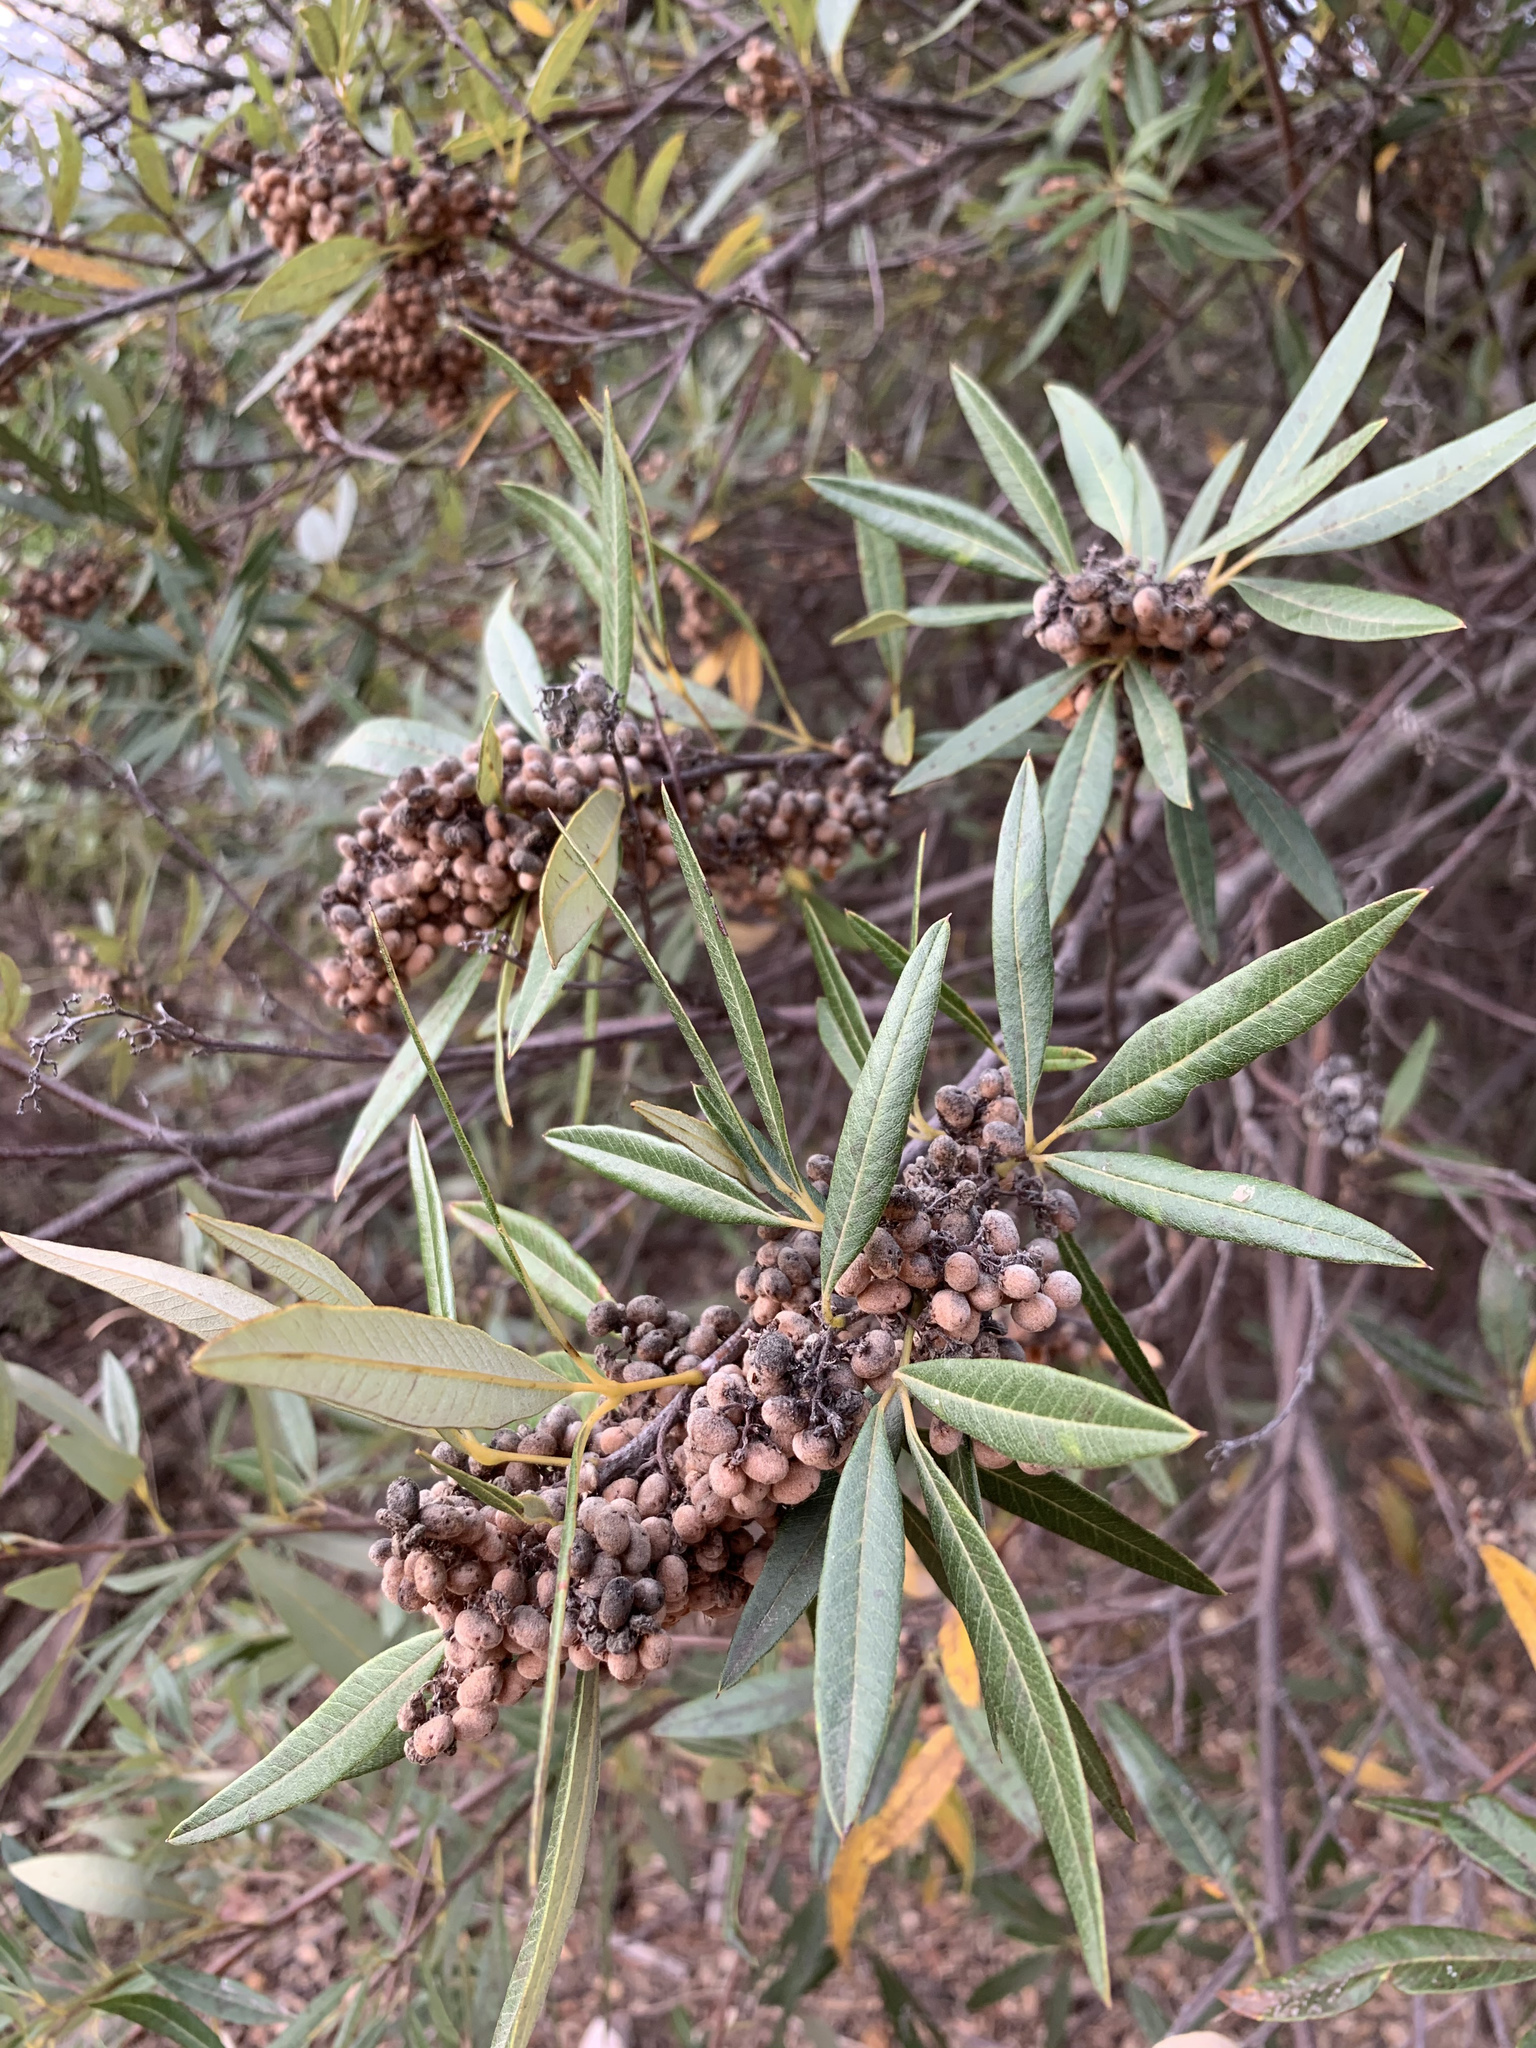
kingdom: Plantae
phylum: Tracheophyta
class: Magnoliopsida
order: Sapindales
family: Anacardiaceae
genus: Searsia
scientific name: Searsia angustifolia
